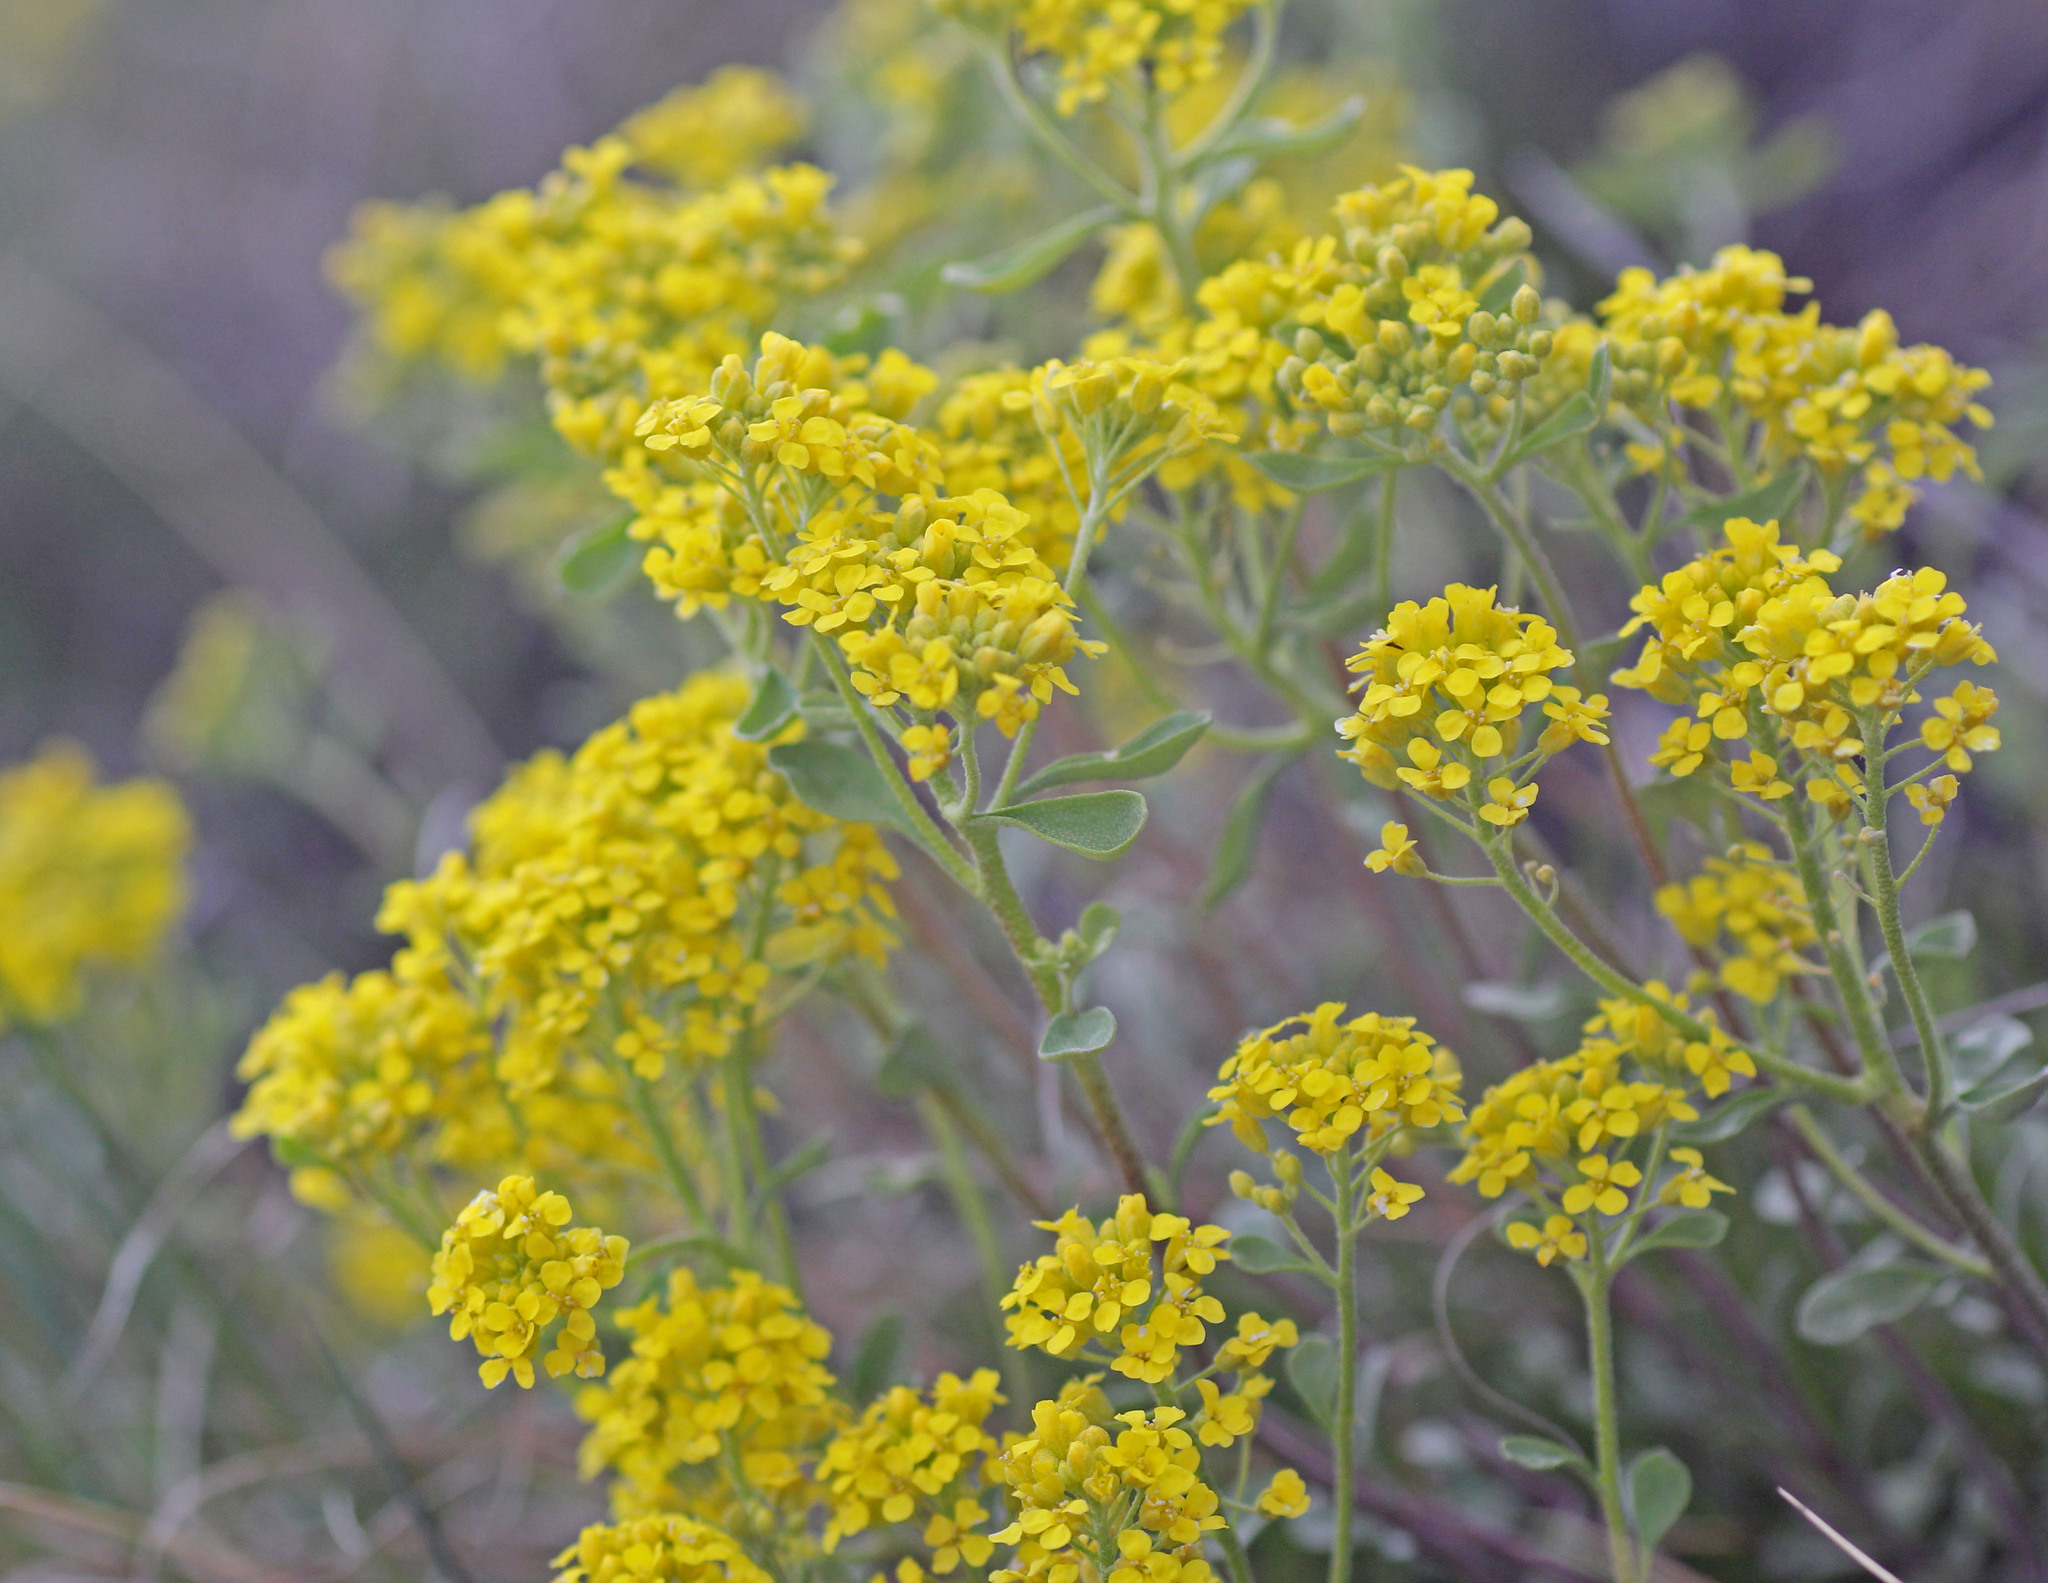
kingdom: Plantae
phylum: Tracheophyta
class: Magnoliopsida
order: Brassicales
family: Brassicaceae
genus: Odontarrhena
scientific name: Odontarrhena obovata
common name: American alyssum
